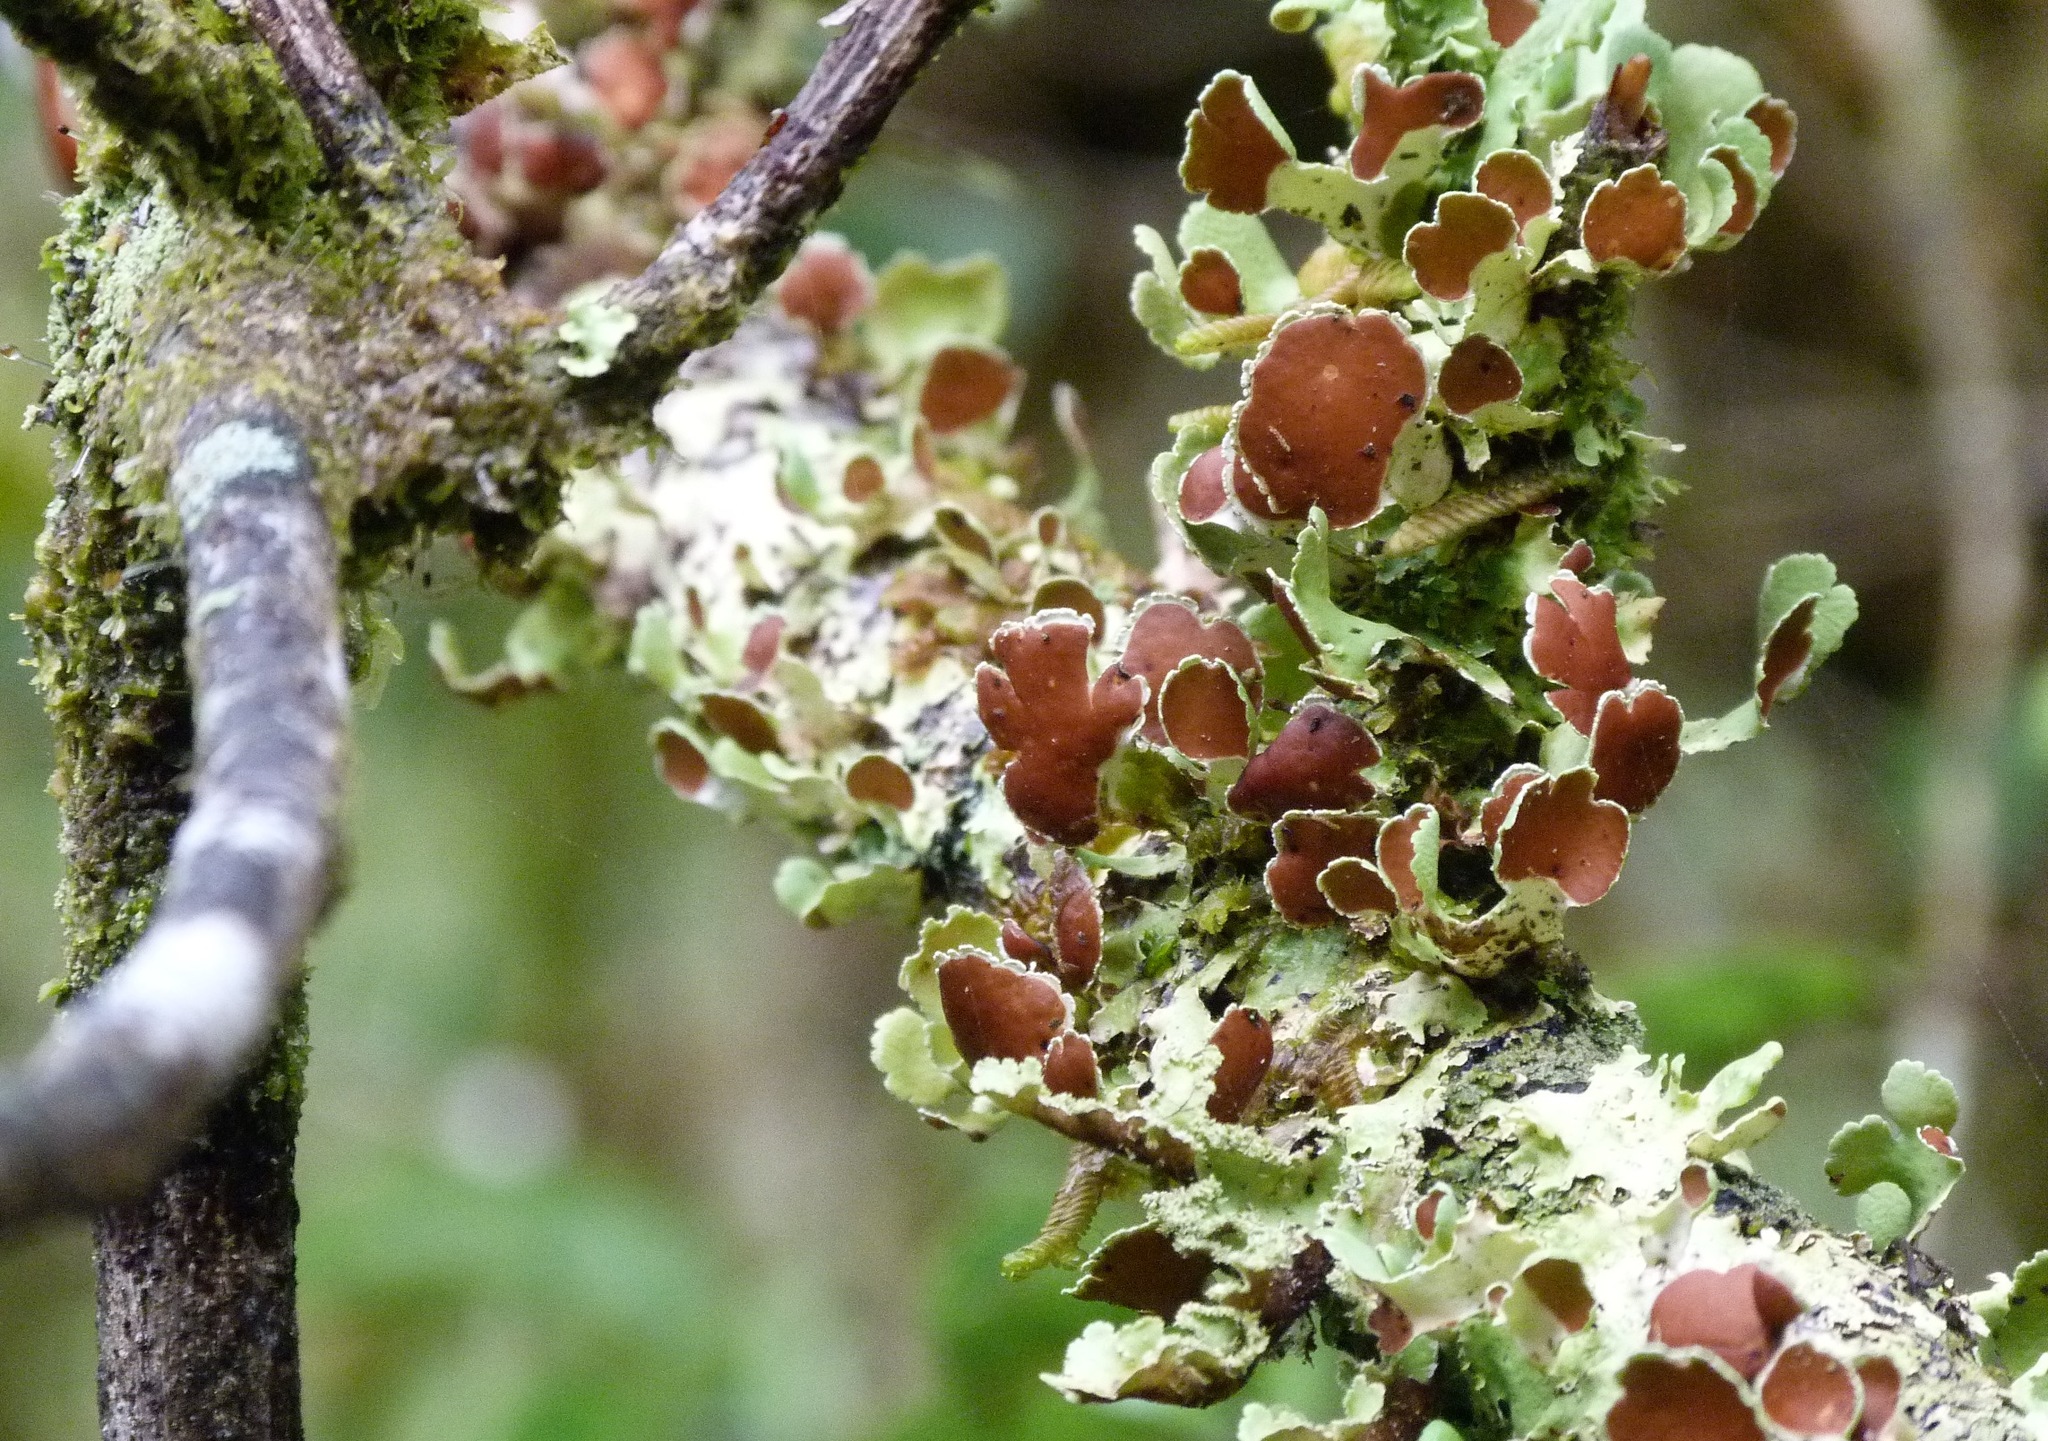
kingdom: Fungi
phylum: Ascomycota
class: Lecanoromycetes
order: Peltigerales
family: Nephromataceae
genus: Nephroma
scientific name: Nephroma australe
